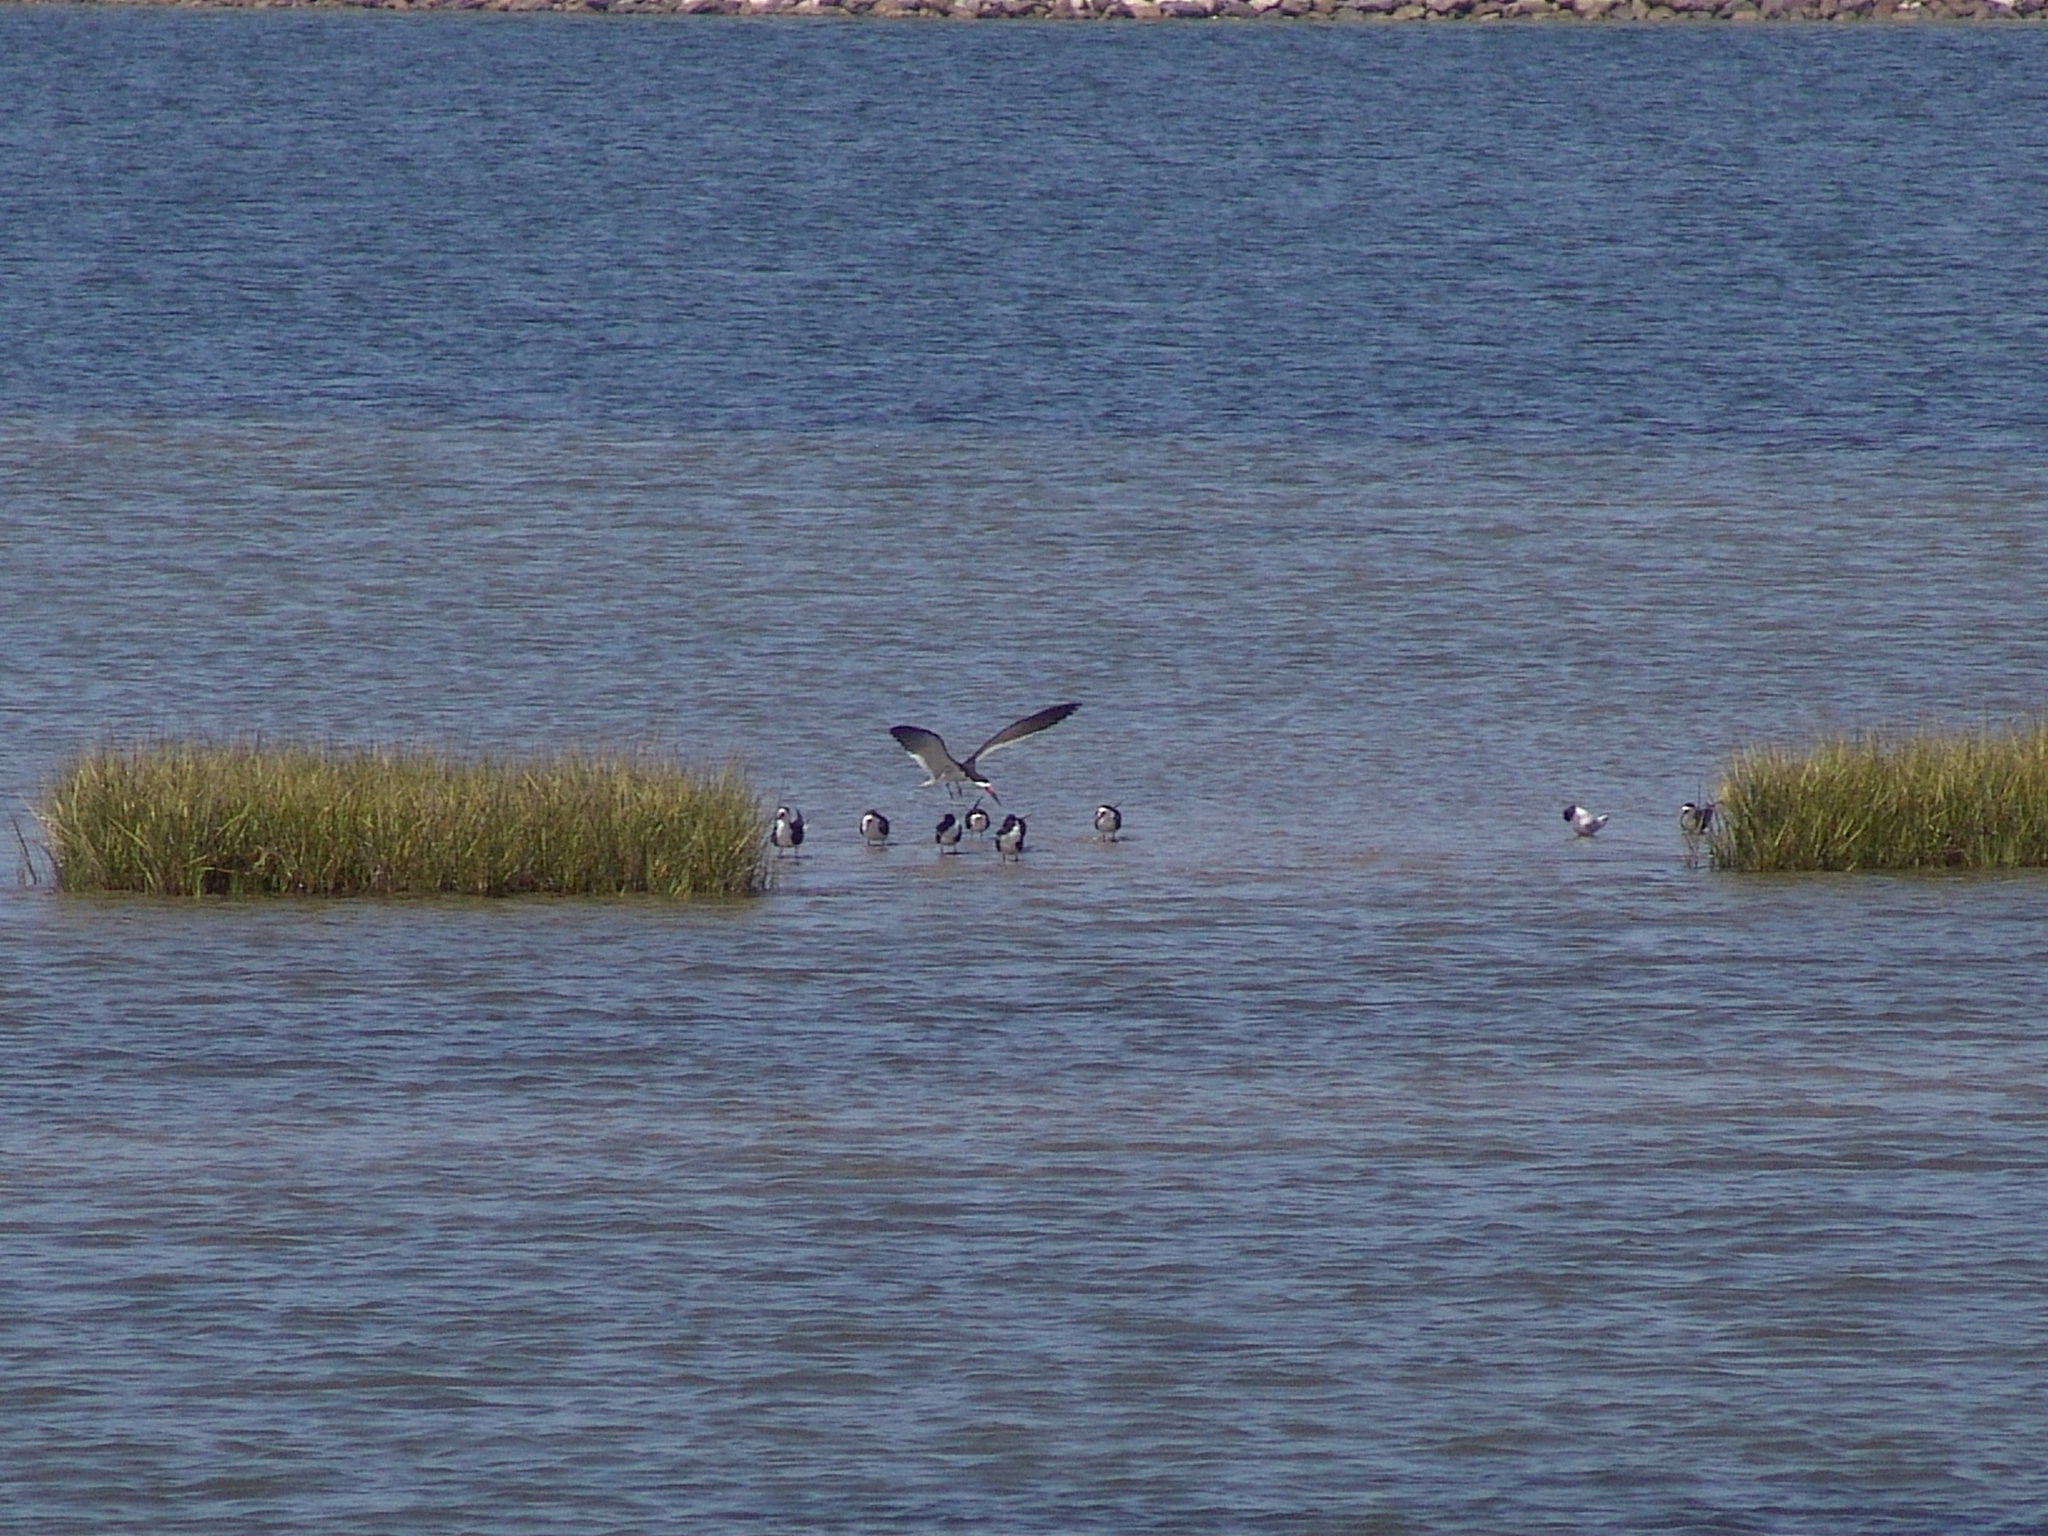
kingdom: Animalia
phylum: Chordata
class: Aves
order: Charadriiformes
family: Laridae
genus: Rynchops
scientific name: Rynchops niger
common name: Black skimmer
